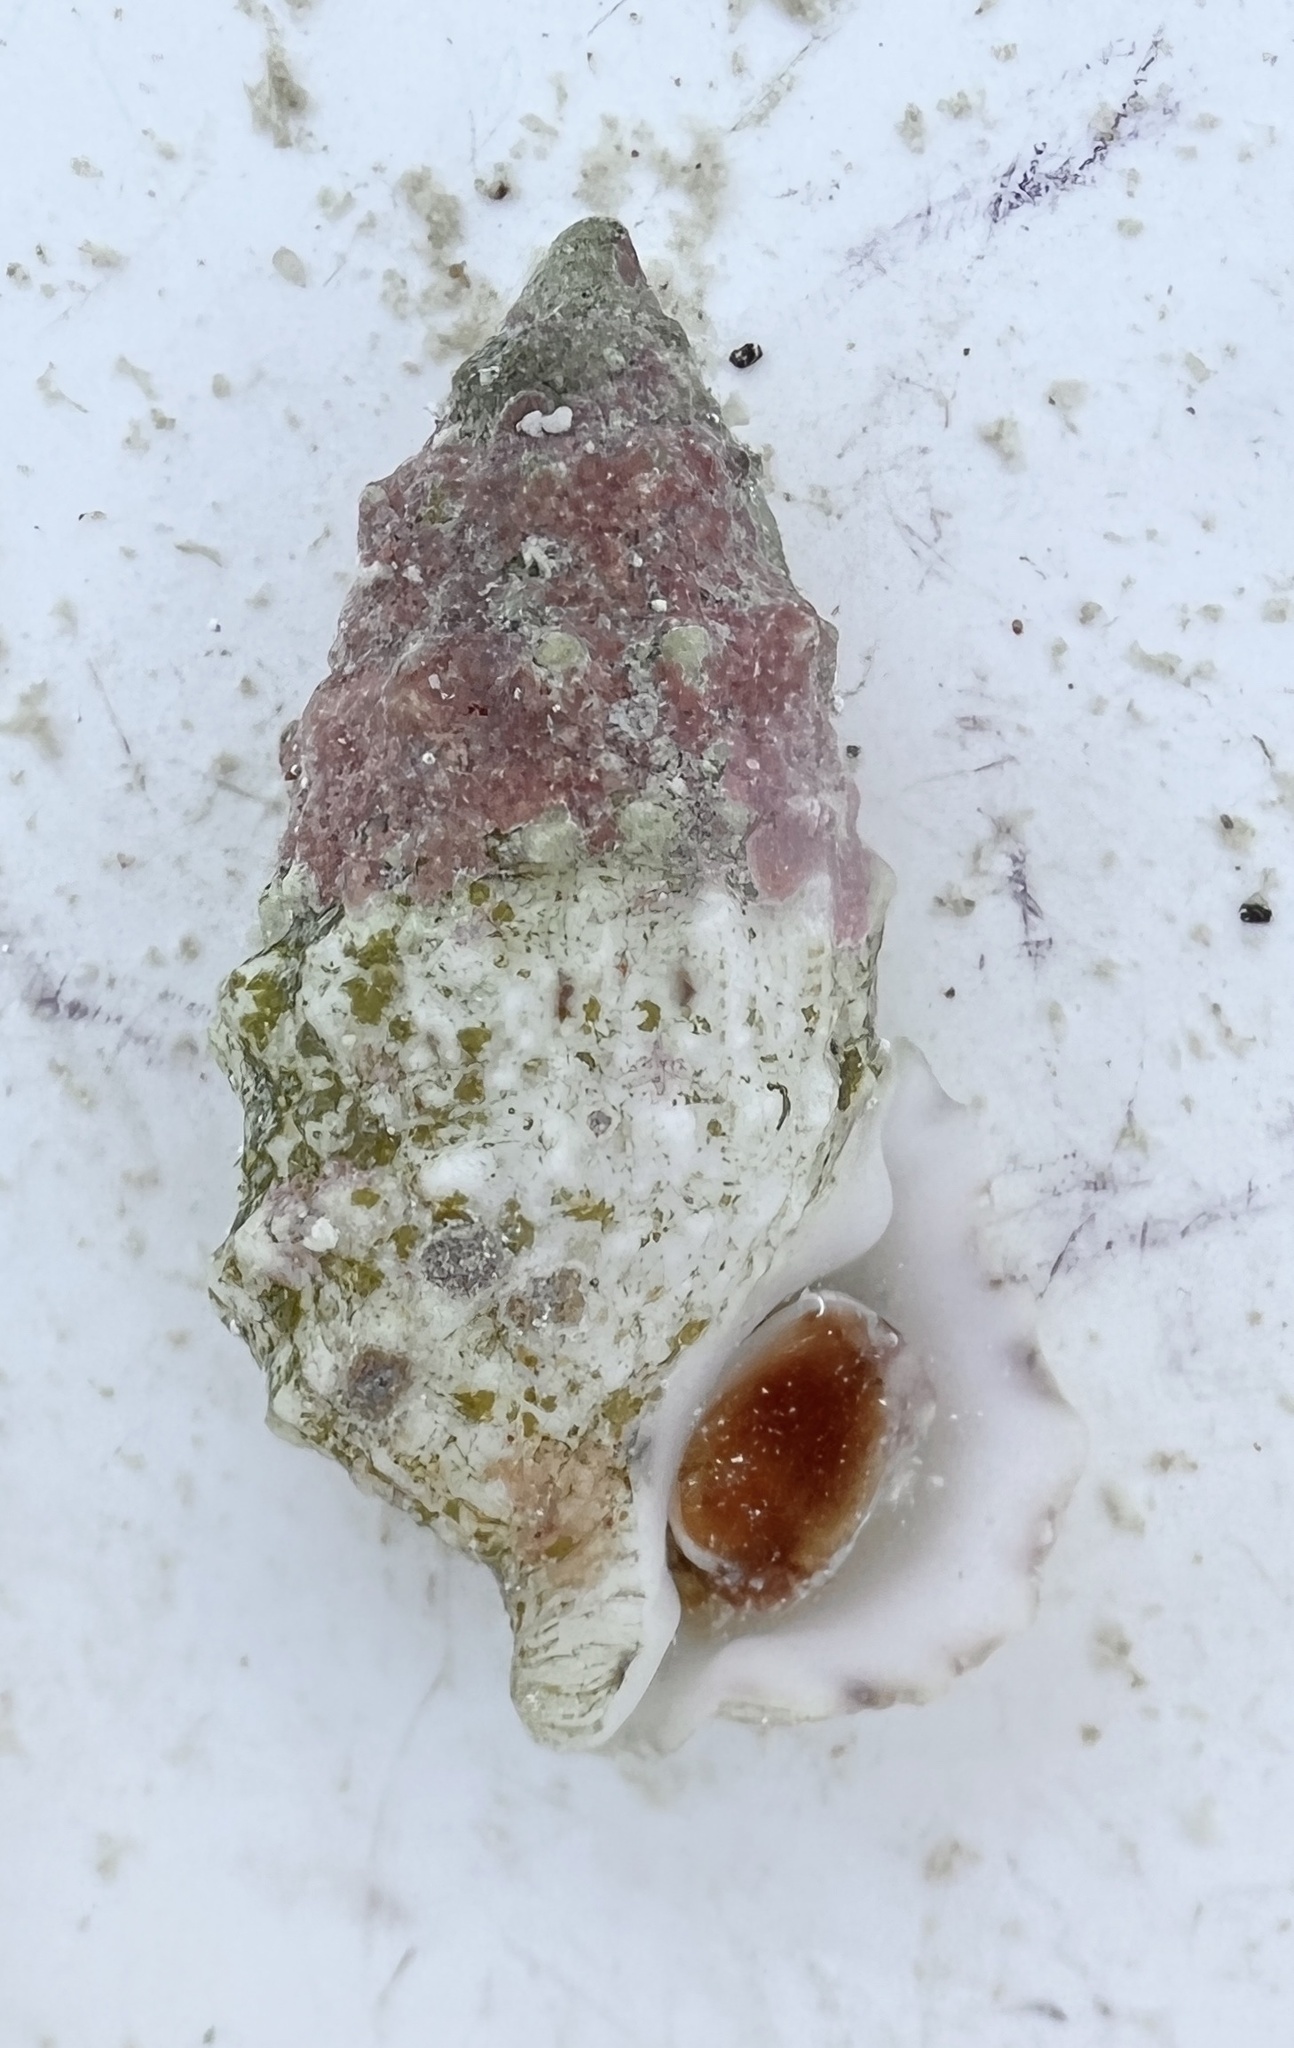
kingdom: Animalia
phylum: Mollusca
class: Gastropoda
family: Cerithiidae
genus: Cerithium
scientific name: Cerithium litteratum
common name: Stocky cerith
